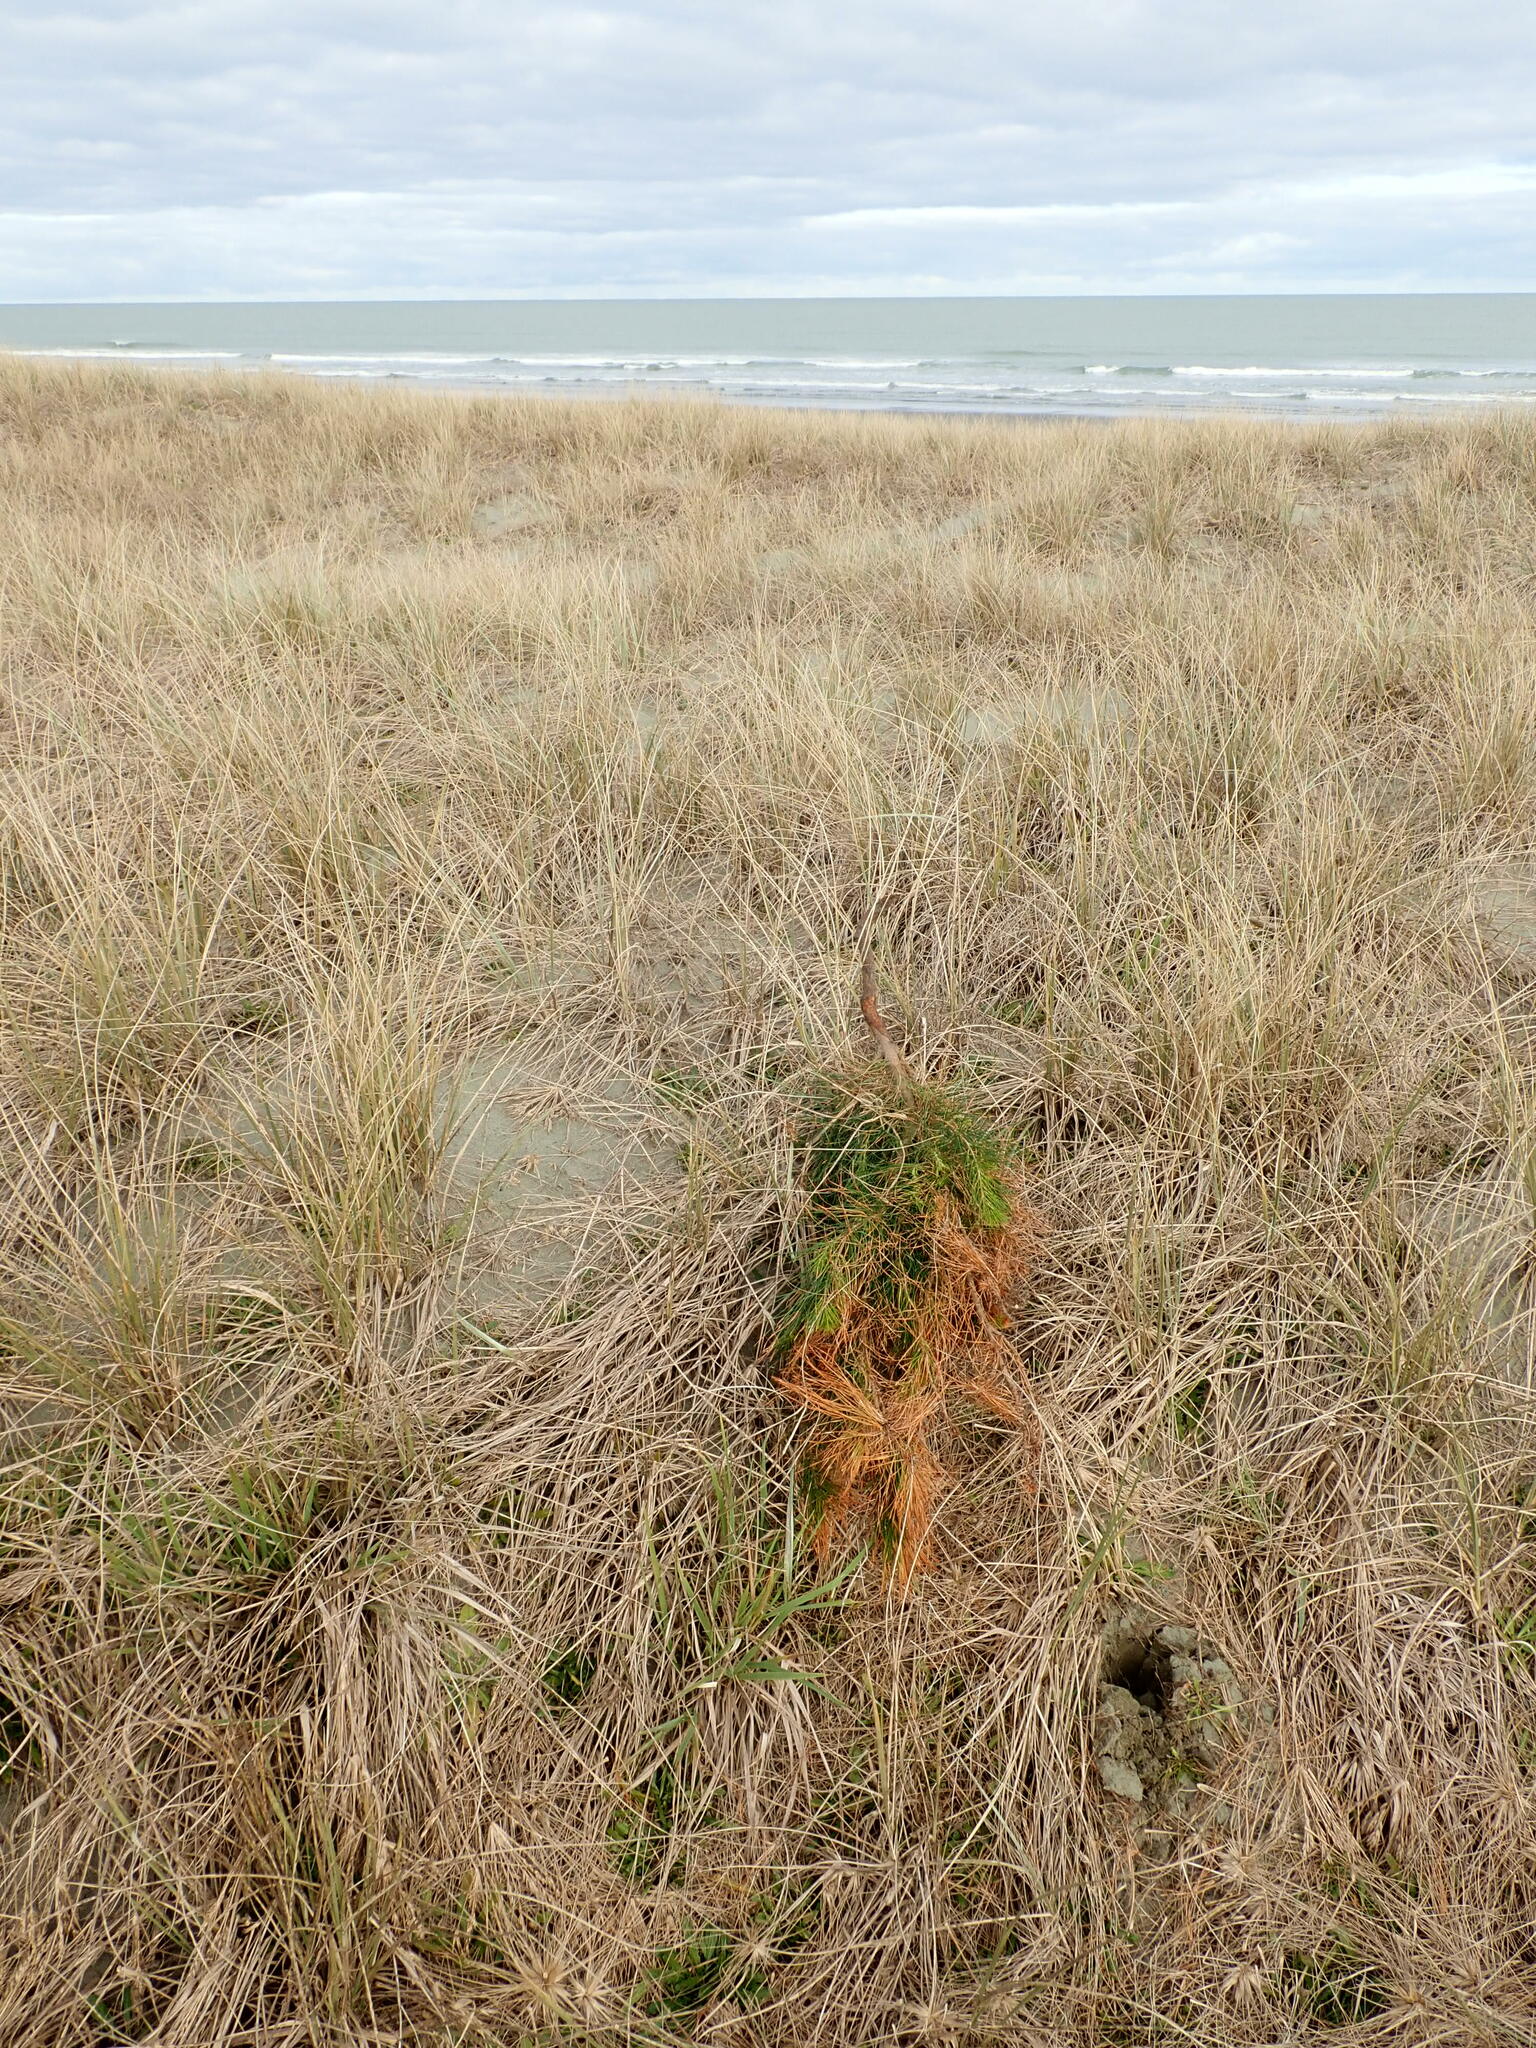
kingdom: Plantae
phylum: Tracheophyta
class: Pinopsida
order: Pinales
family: Pinaceae
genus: Pinus
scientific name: Pinus radiata
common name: Monterey pine
